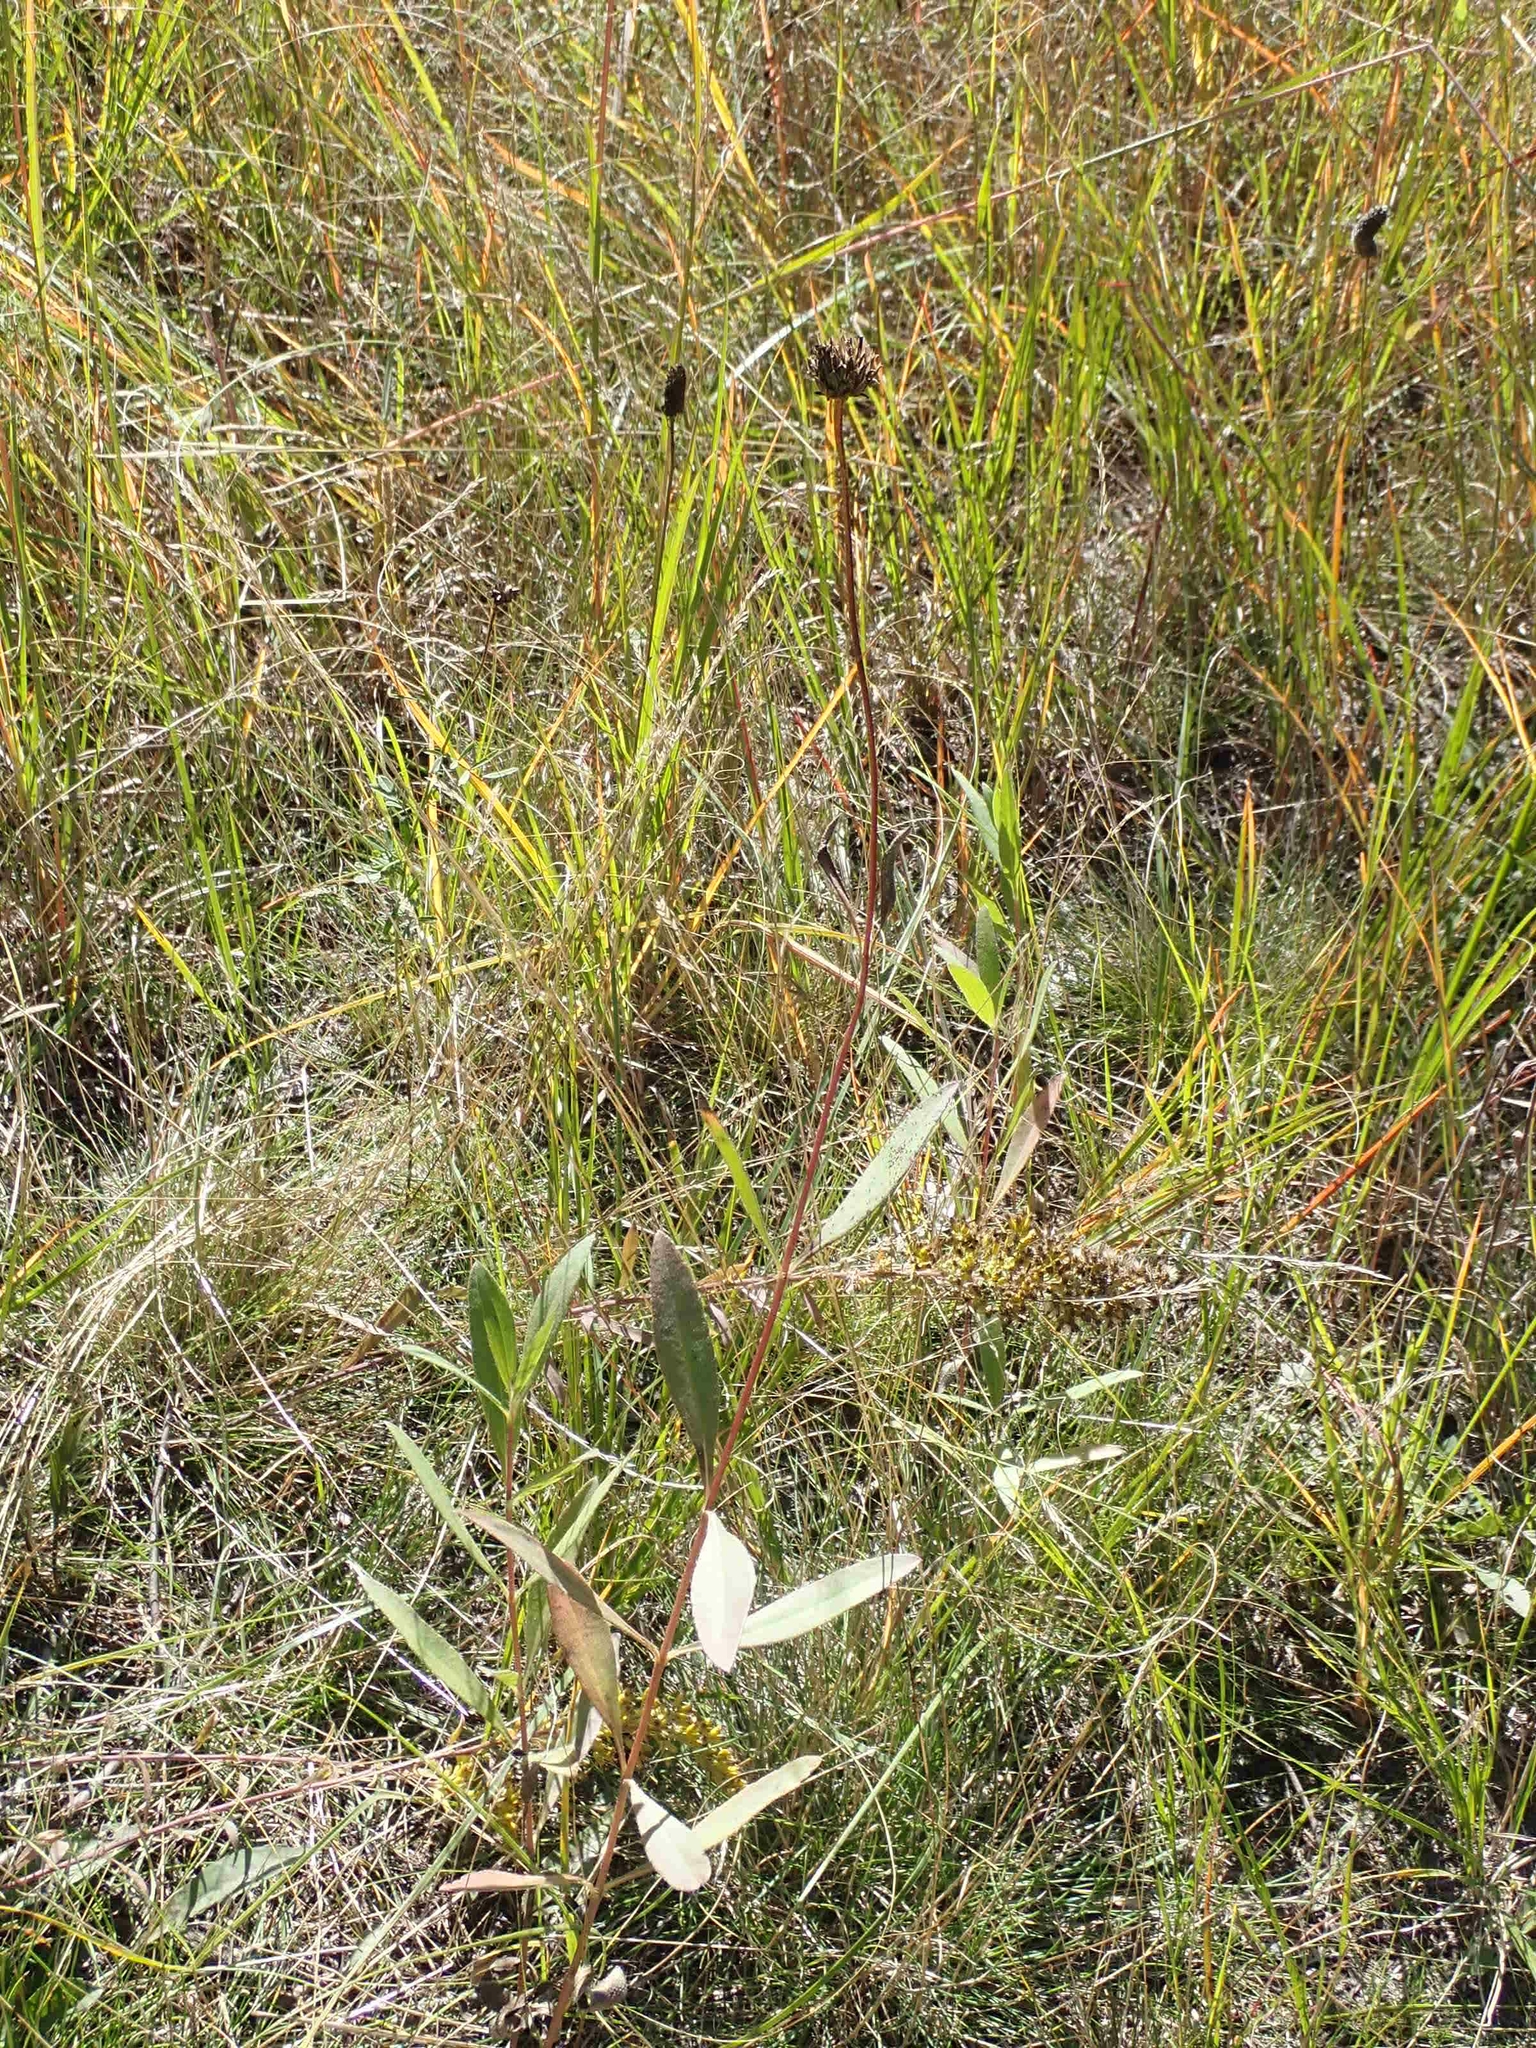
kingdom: Plantae
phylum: Tracheophyta
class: Magnoliopsida
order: Asterales
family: Asteraceae
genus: Helianthus
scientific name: Helianthus pauciflorus
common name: Stiff sunflower
